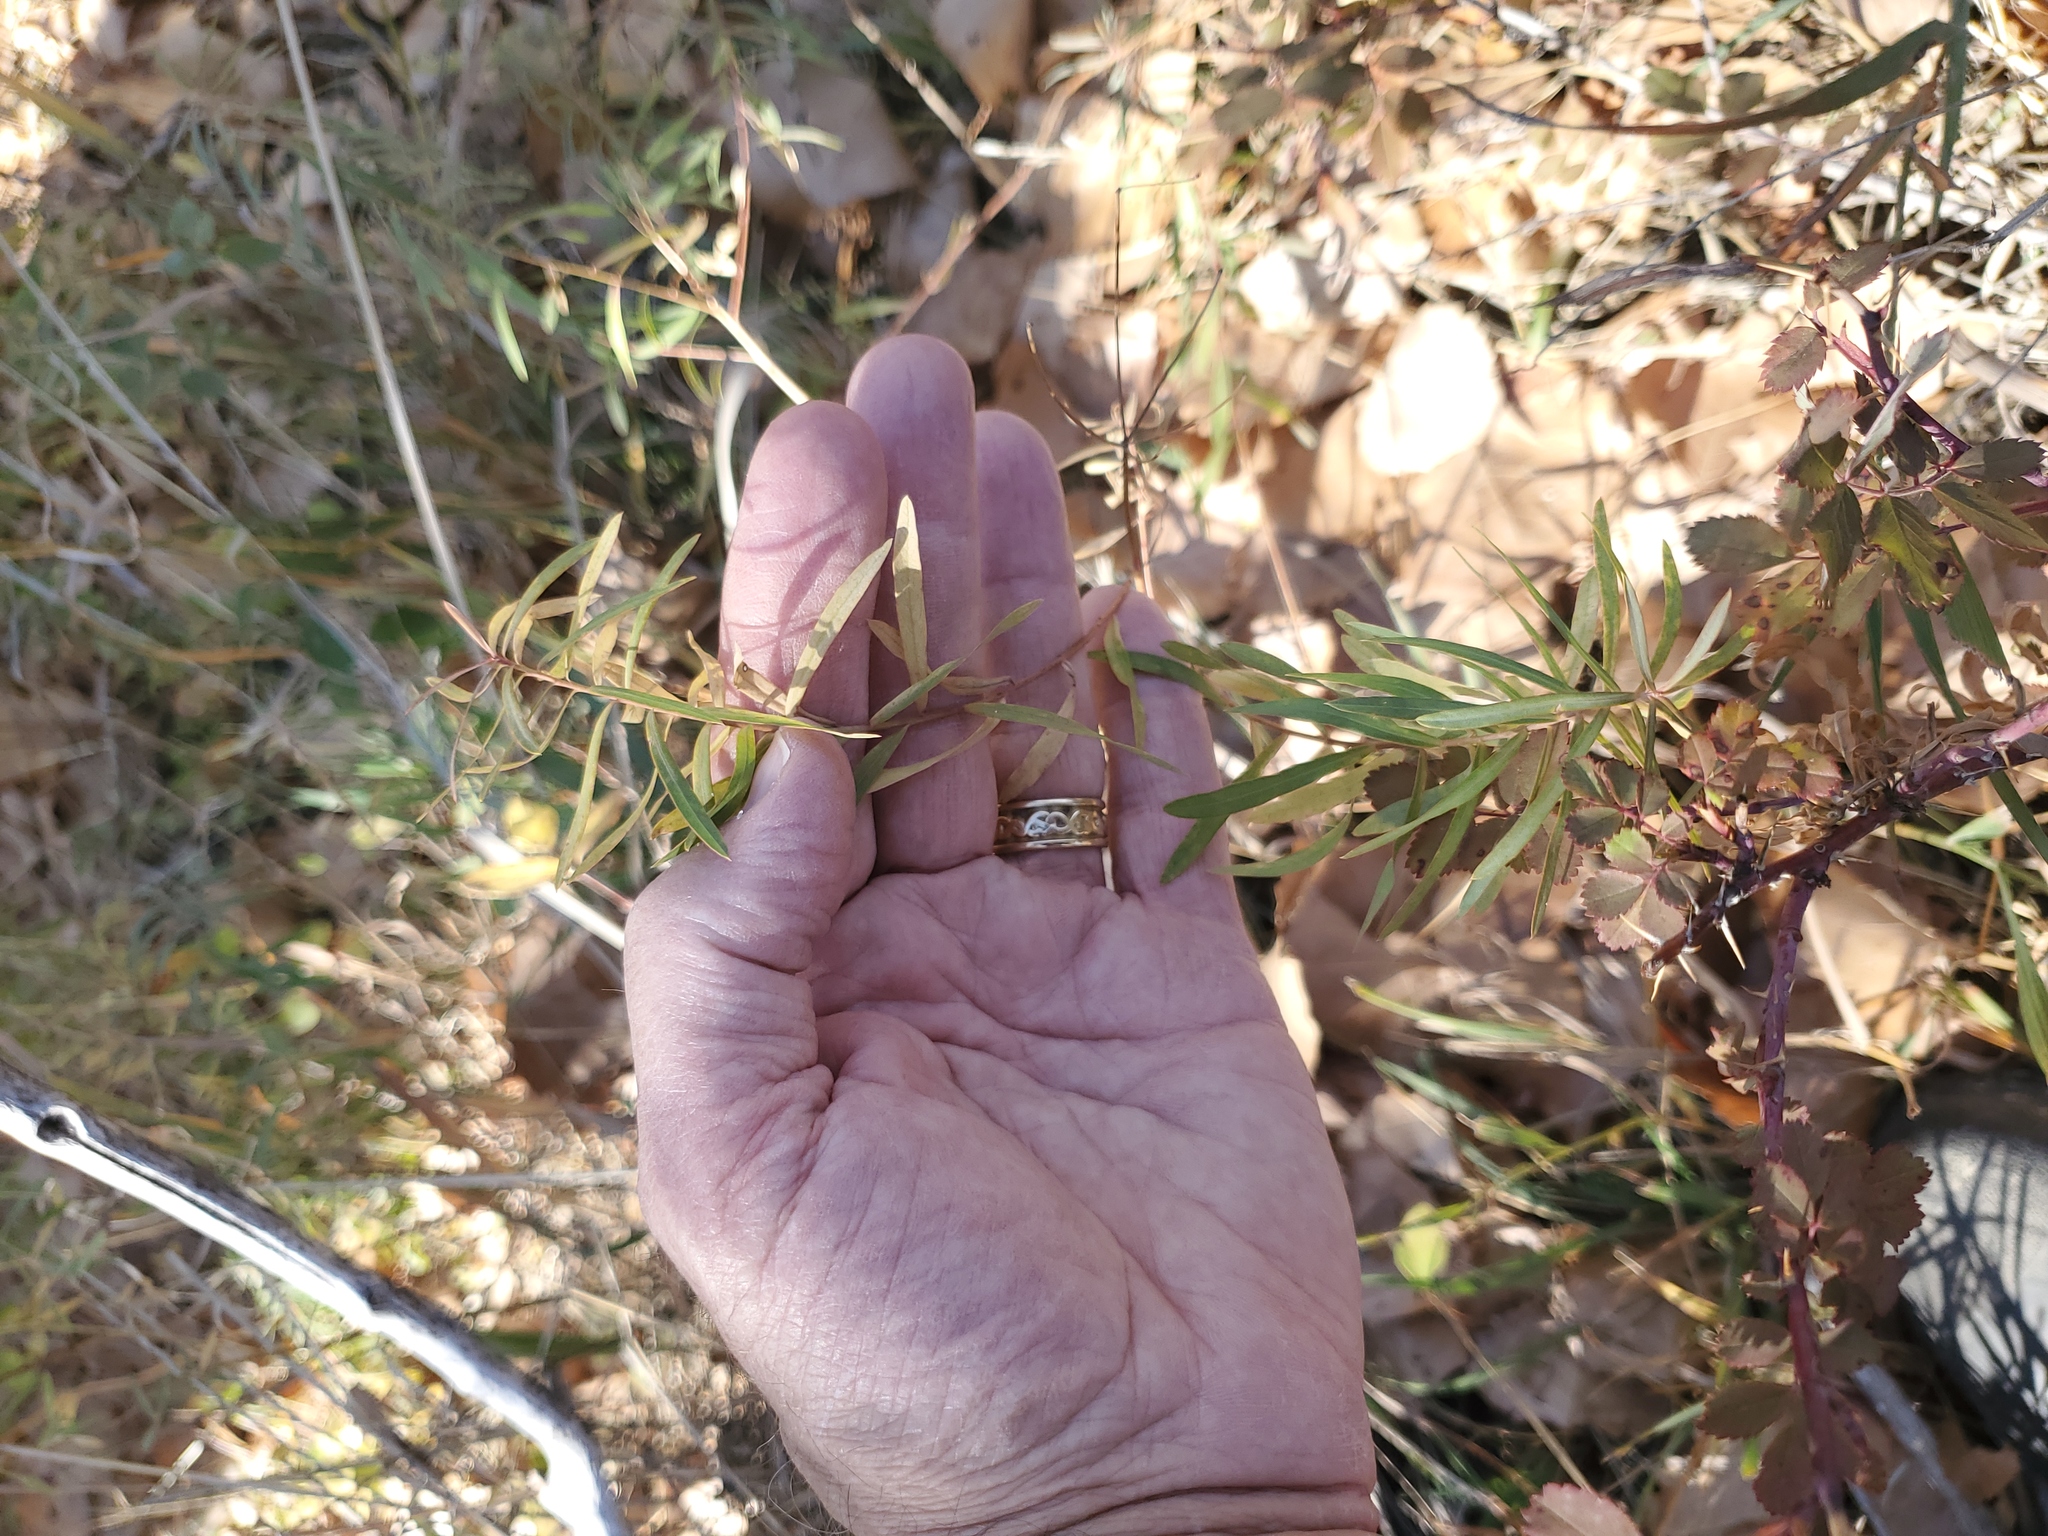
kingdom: Plantae
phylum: Tracheophyta
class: Magnoliopsida
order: Malpighiales
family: Euphorbiaceae
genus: Euphorbia
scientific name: Euphorbia virgata
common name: Leafy spurge
